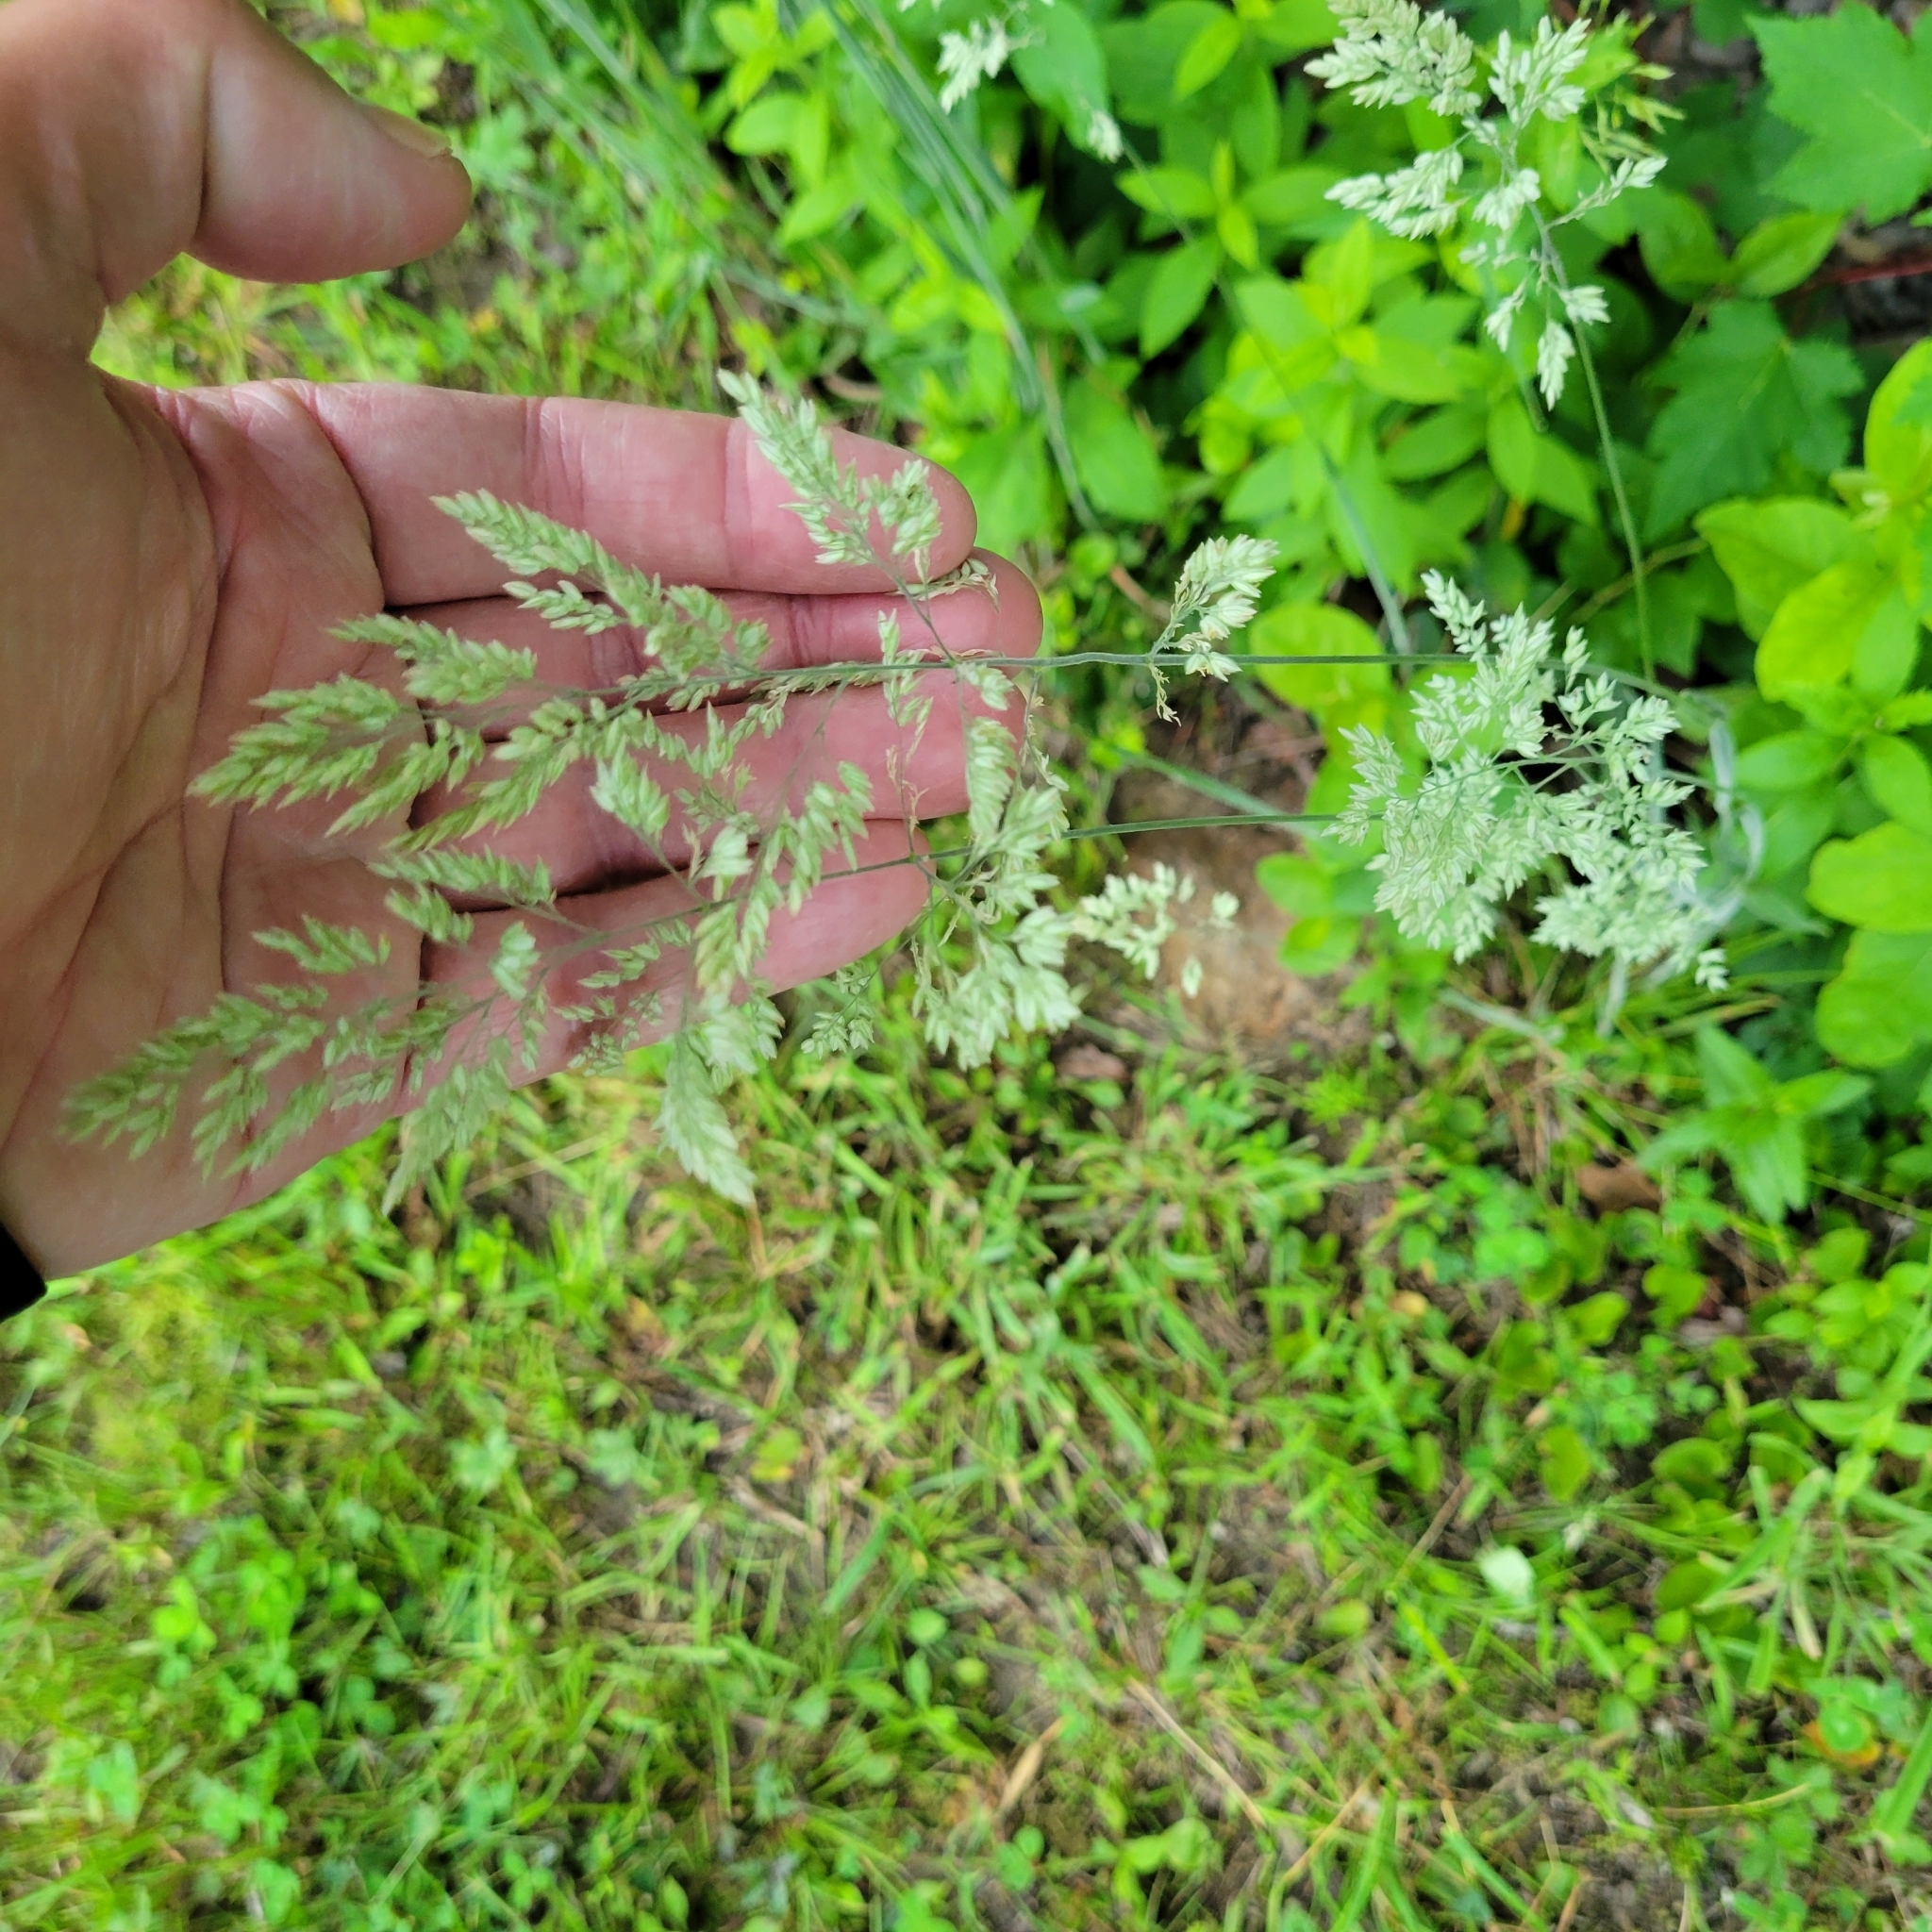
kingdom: Plantae
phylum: Tracheophyta
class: Liliopsida
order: Poales
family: Poaceae
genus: Holcus
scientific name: Holcus lanatus
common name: Yorkshire-fog
